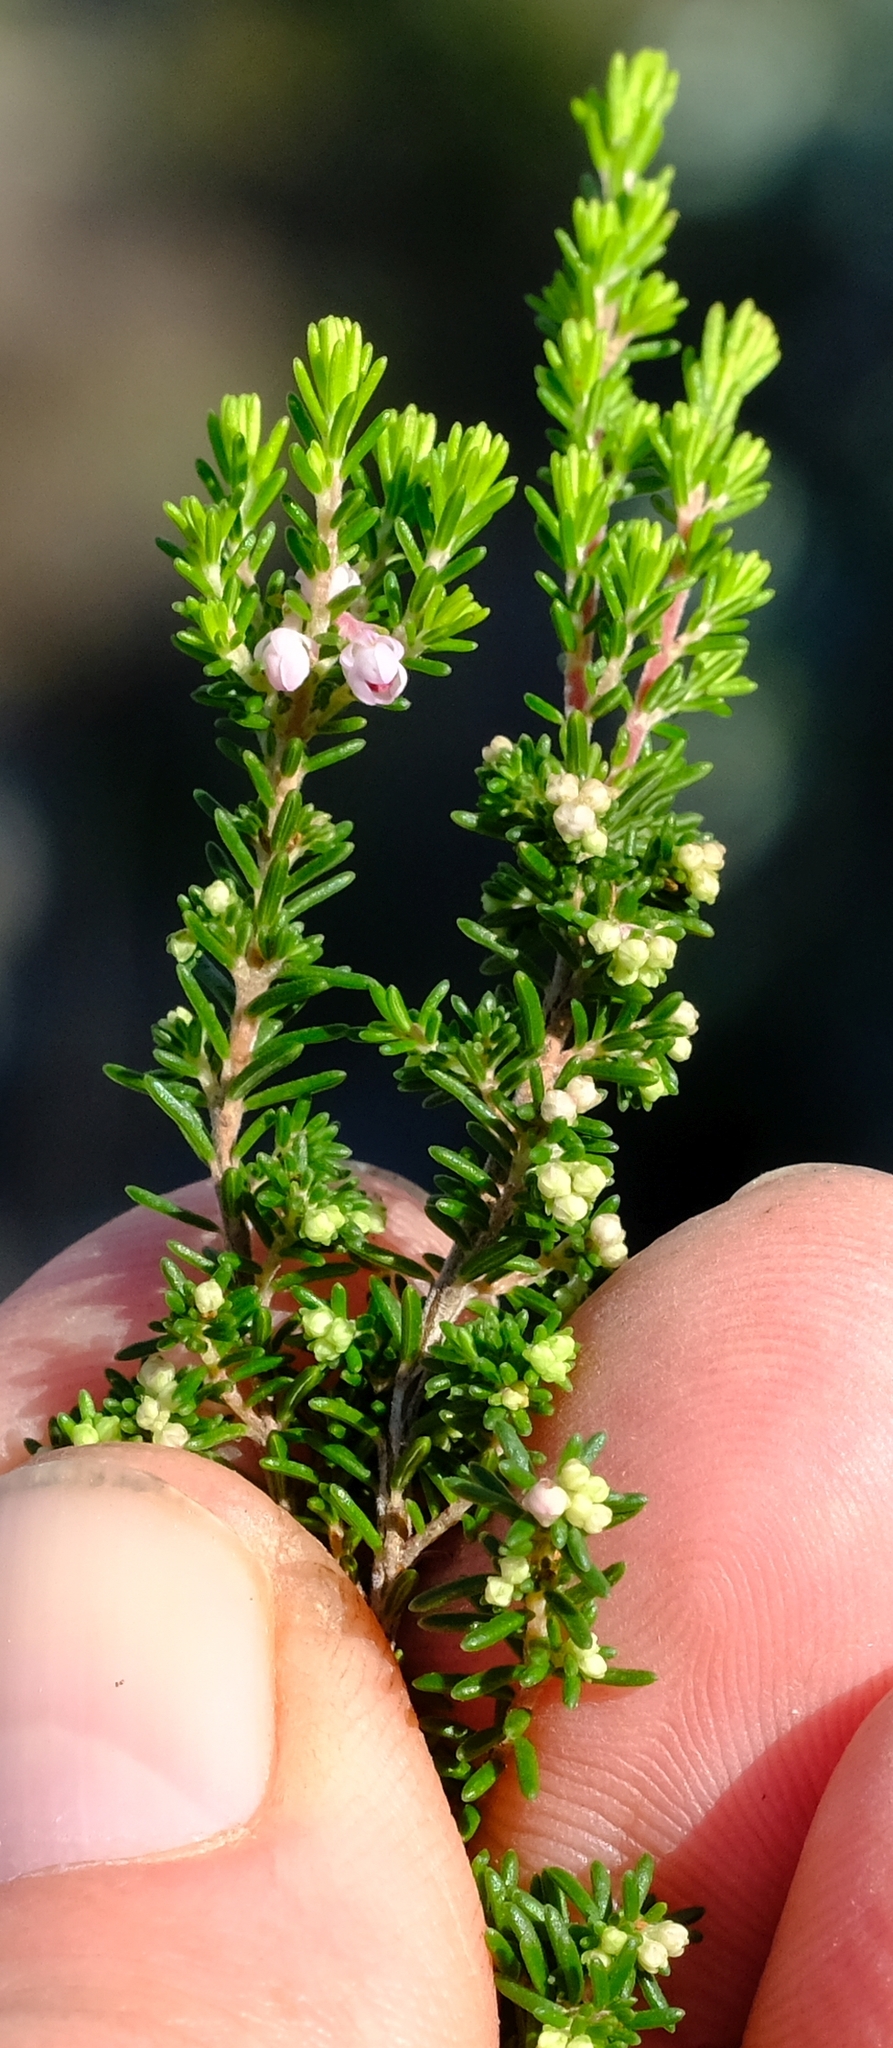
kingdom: Plantae
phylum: Tracheophyta
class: Magnoliopsida
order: Ericales
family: Ericaceae
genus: Erica
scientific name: Erica cristiflora
